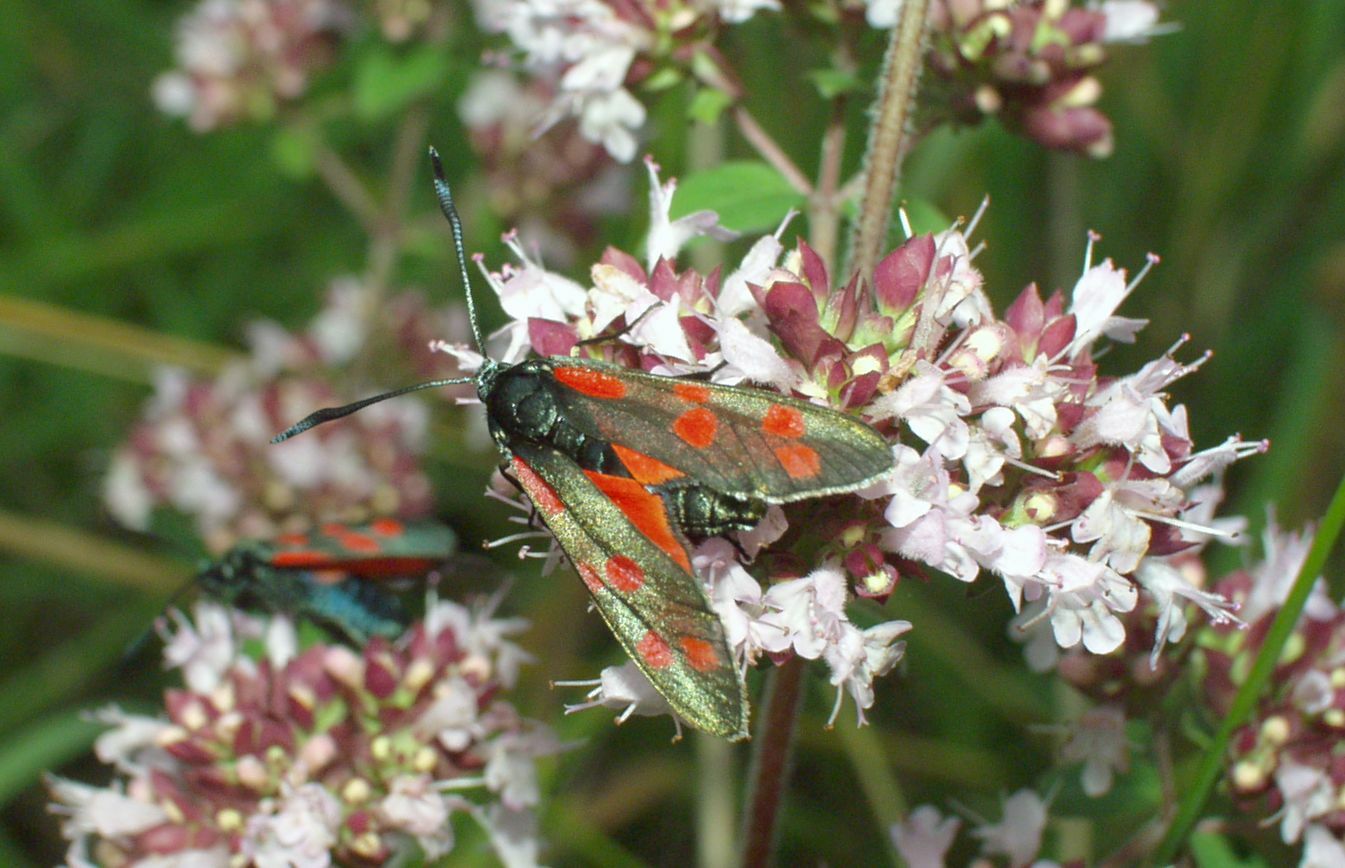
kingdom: Animalia
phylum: Arthropoda
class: Insecta
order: Lepidoptera
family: Zygaenidae
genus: Zygaena
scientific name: Zygaena filipendulae
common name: Six-spot burnet
